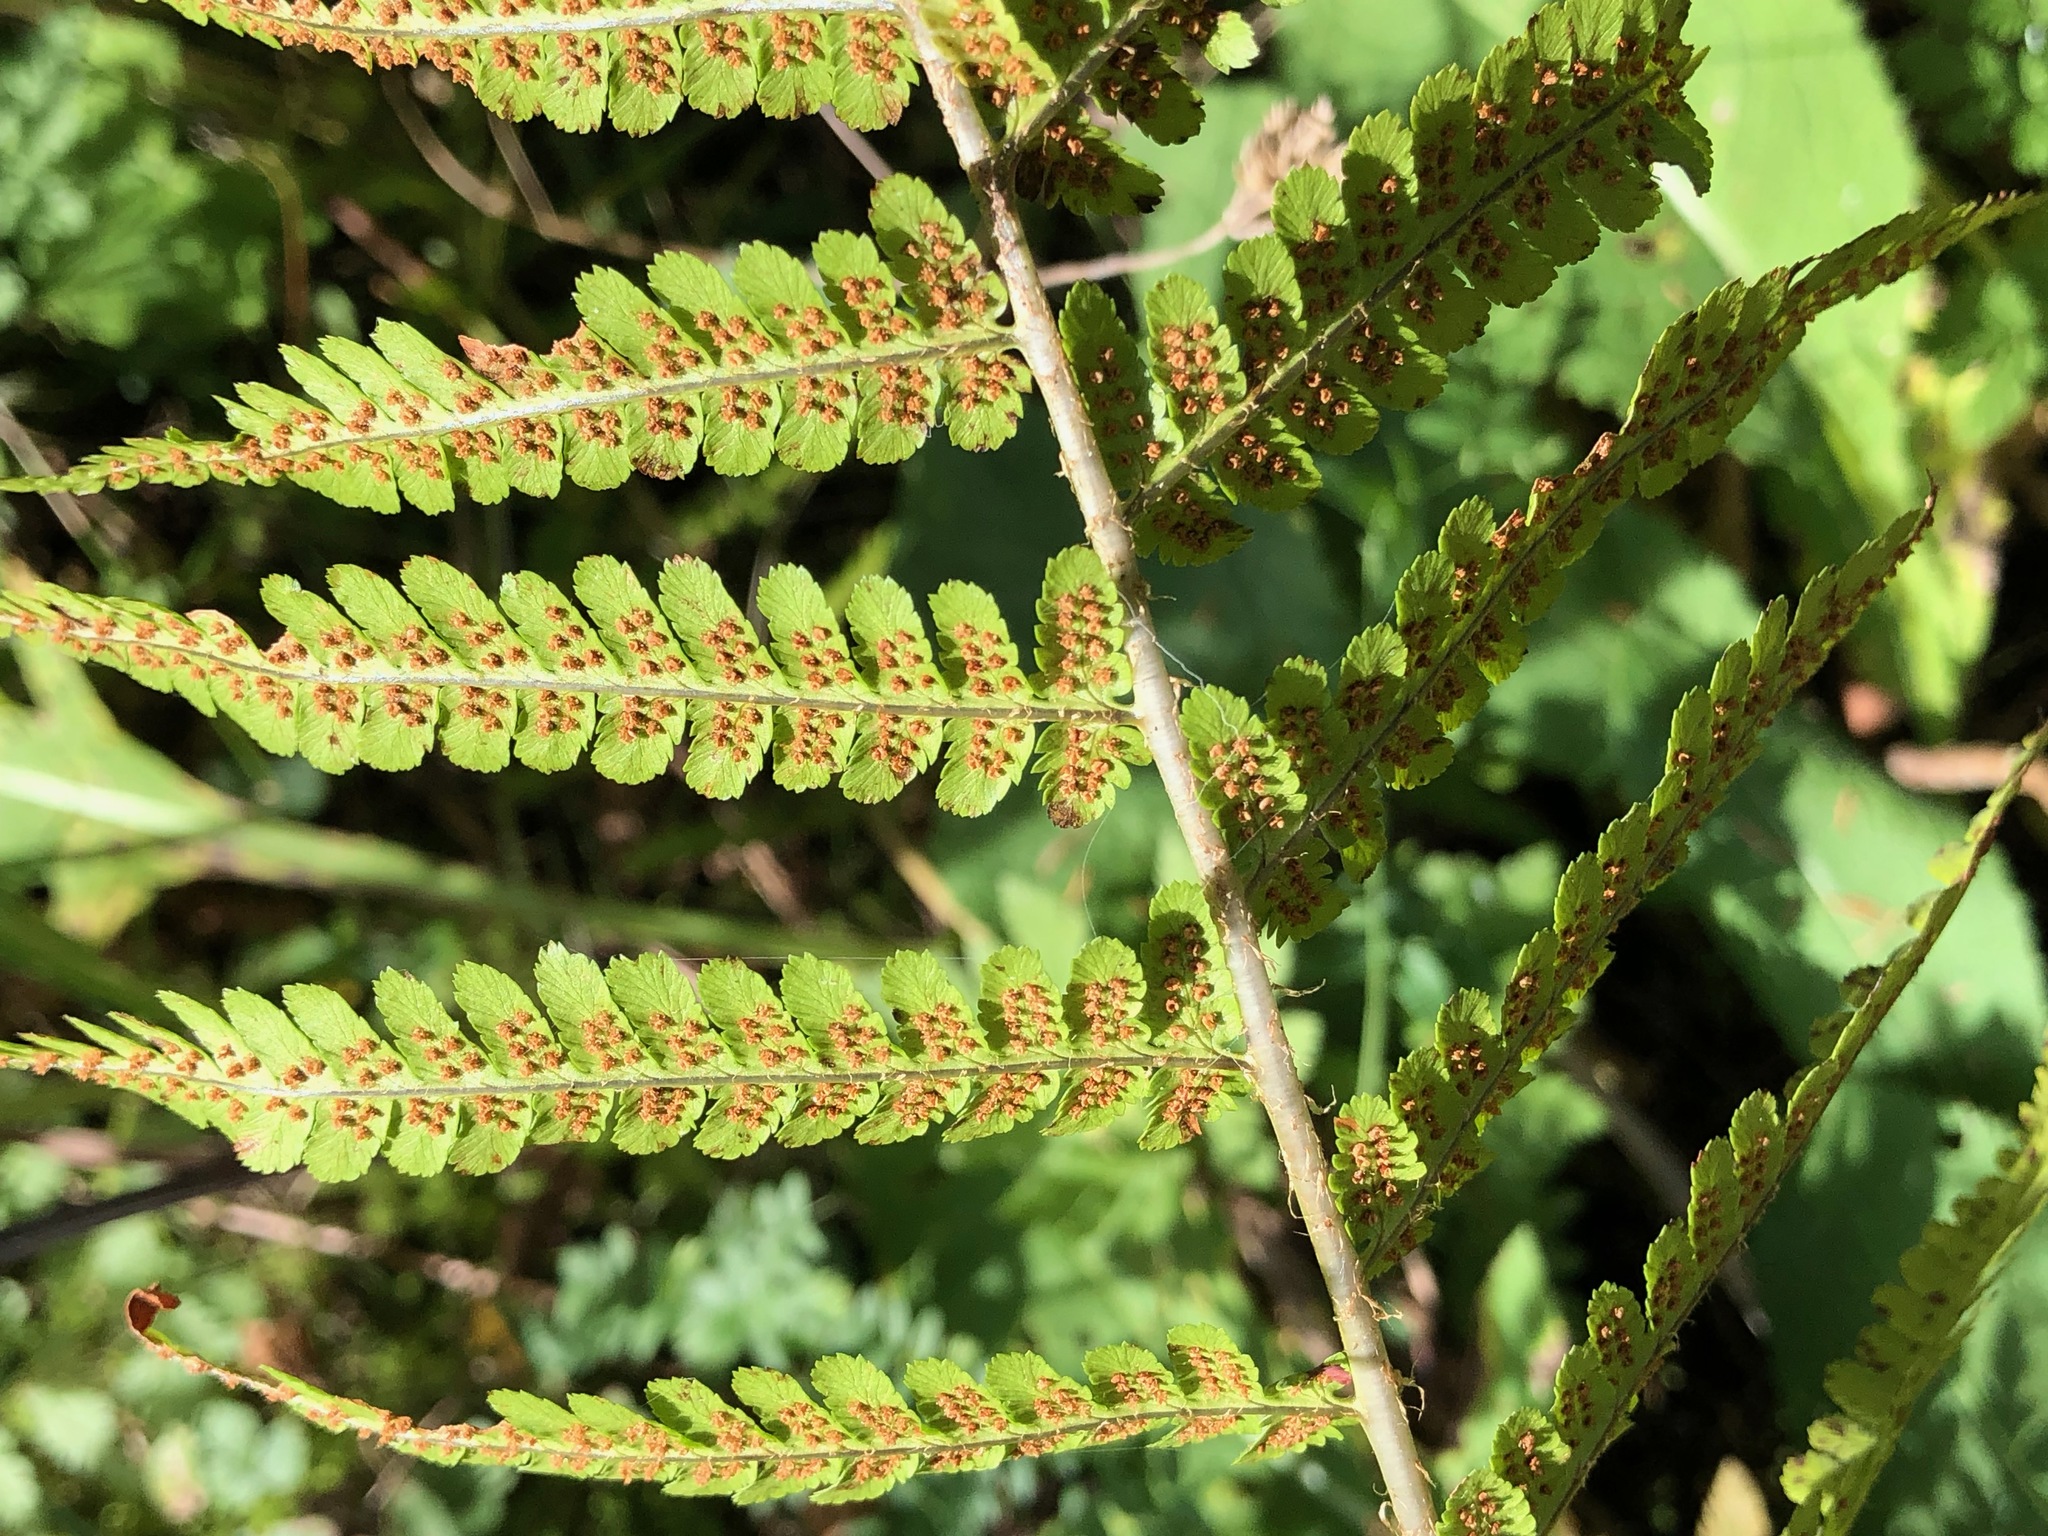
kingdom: Plantae
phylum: Tracheophyta
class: Polypodiopsida
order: Polypodiales
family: Dryopteridaceae
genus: Dryopteris
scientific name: Dryopteris filix-mas
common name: Male fern
